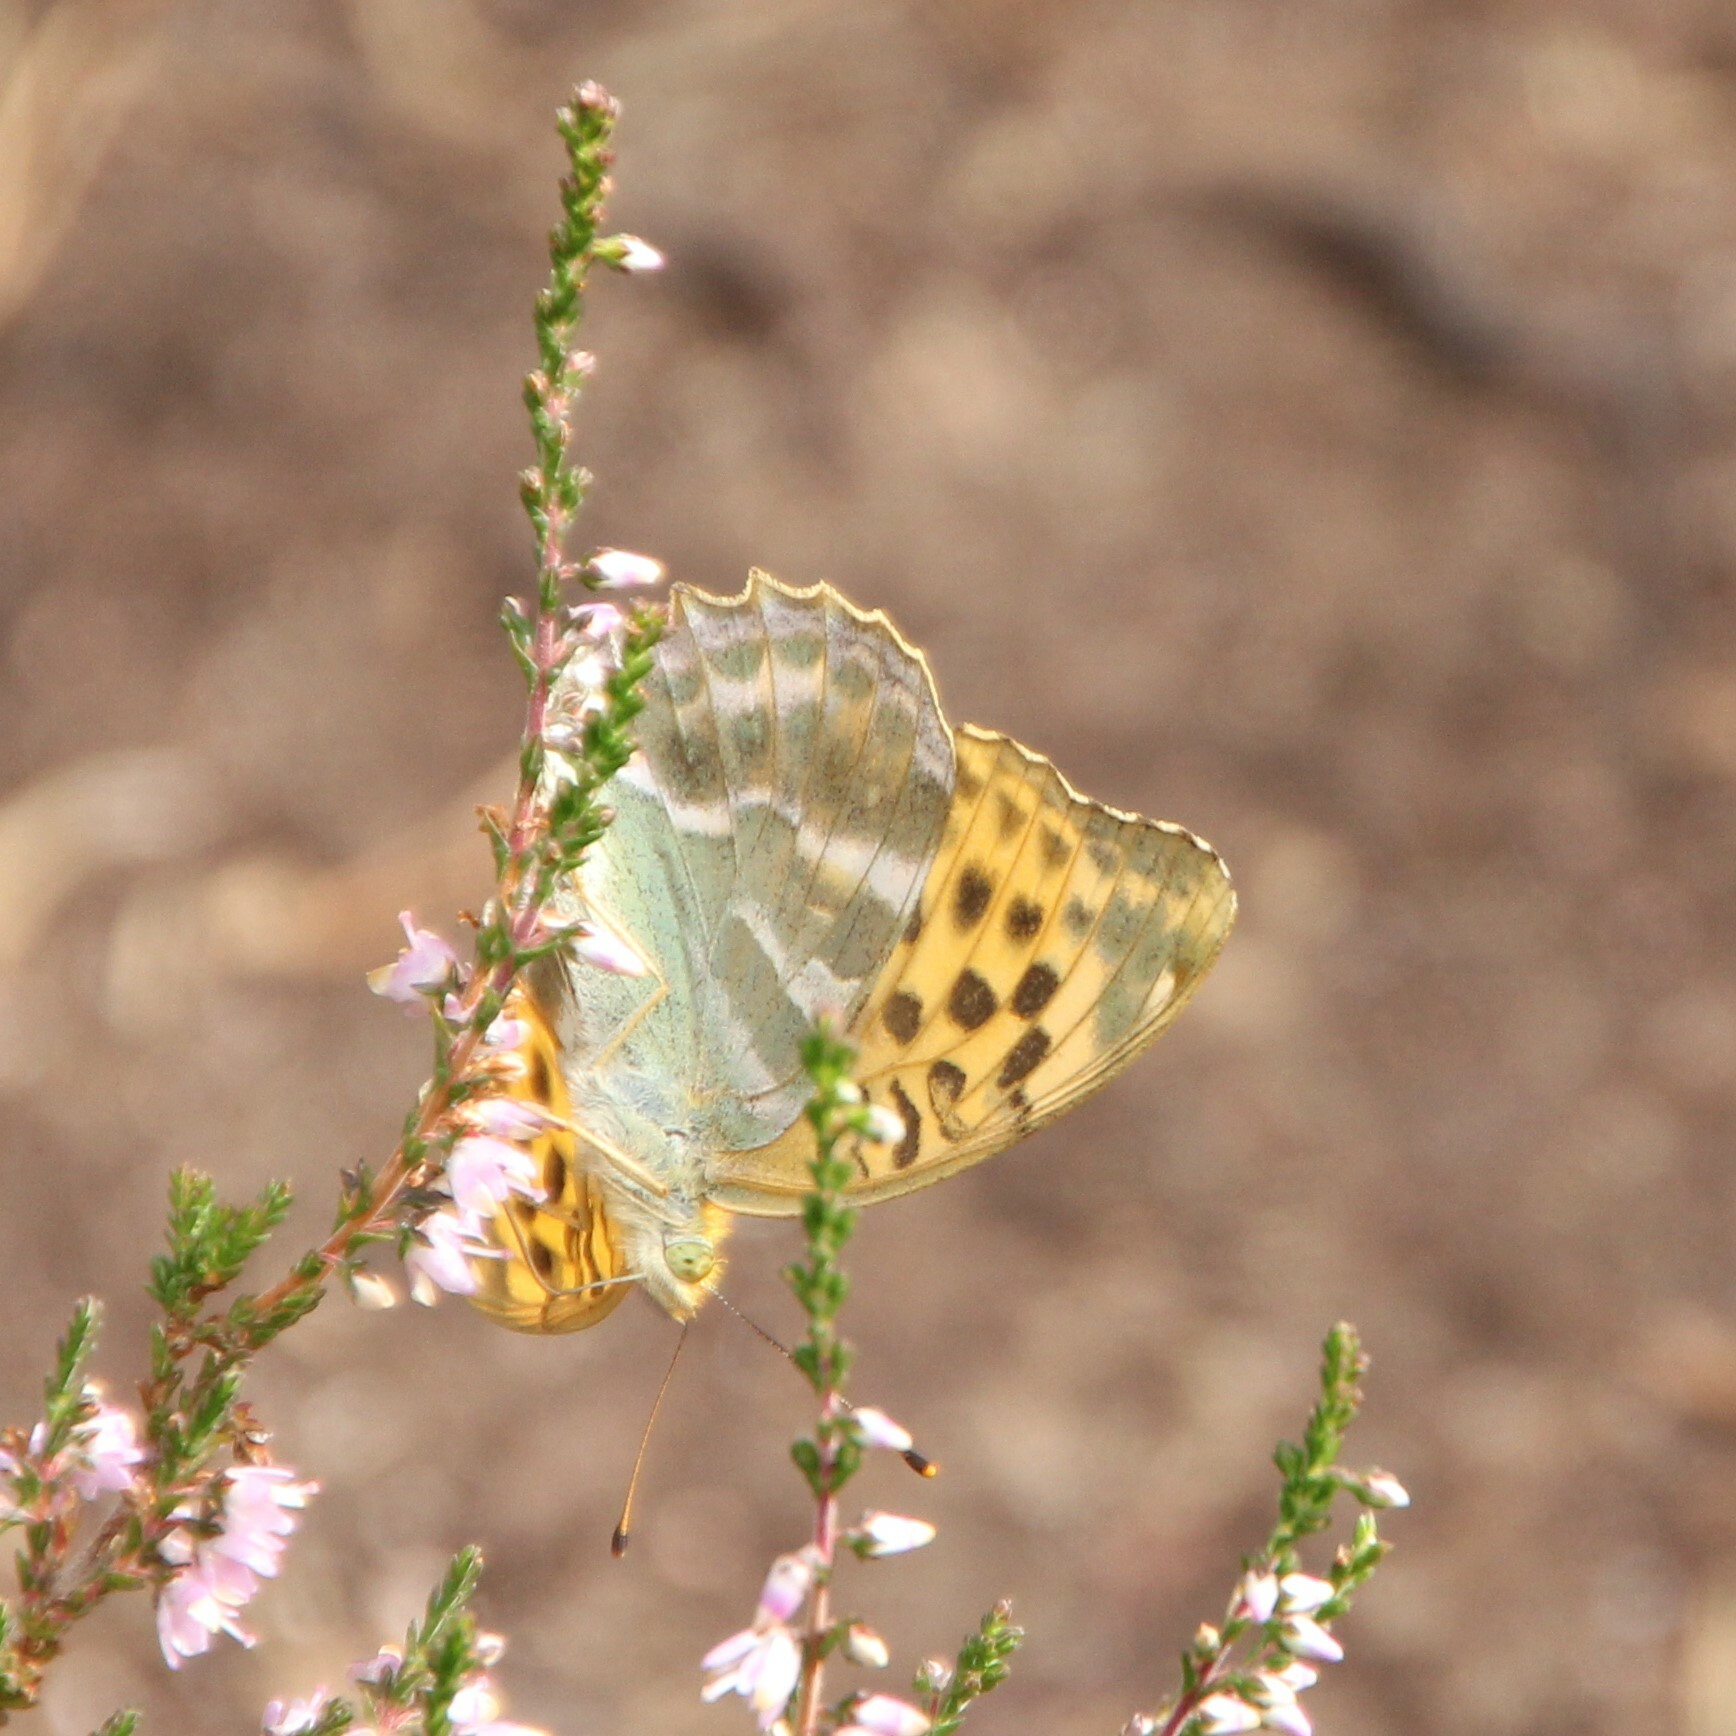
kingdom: Animalia
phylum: Arthropoda
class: Insecta
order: Lepidoptera
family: Nymphalidae
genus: Argynnis
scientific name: Argynnis paphia
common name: Silver-washed fritillary
